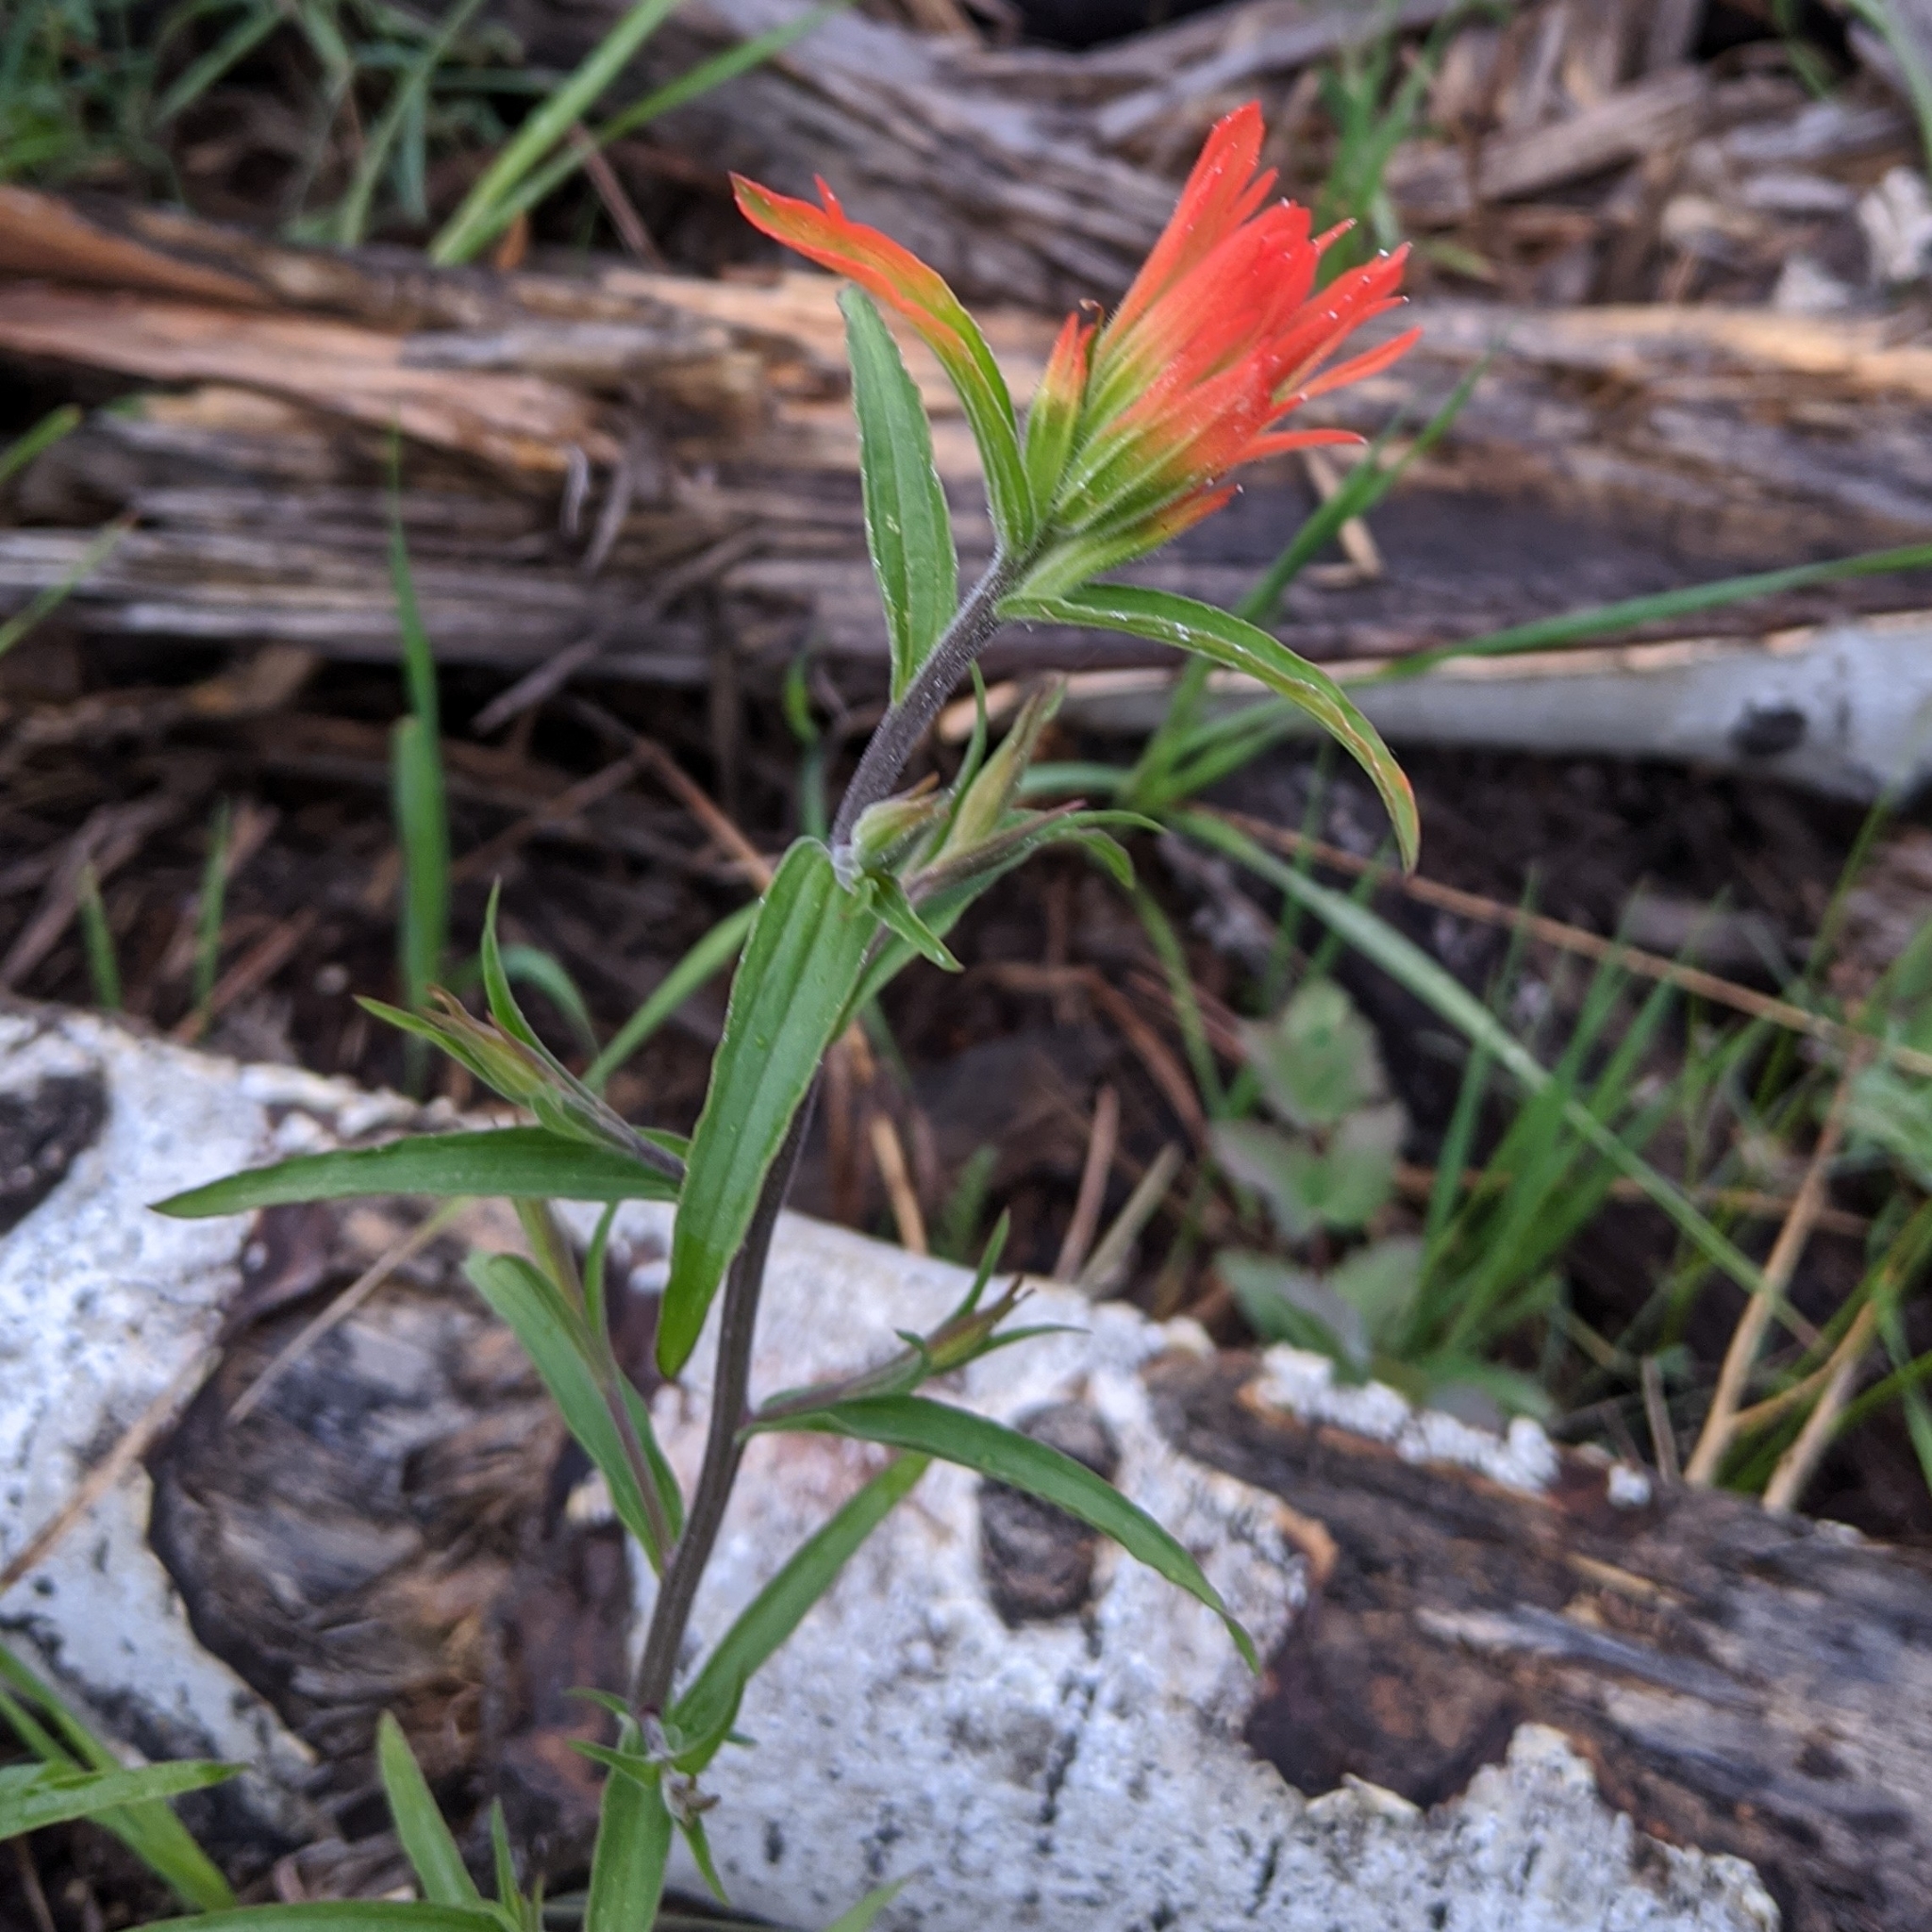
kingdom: Plantae
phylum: Tracheophyta
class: Magnoliopsida
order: Lamiales
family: Orobanchaceae
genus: Castilleja
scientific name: Castilleja miniata
